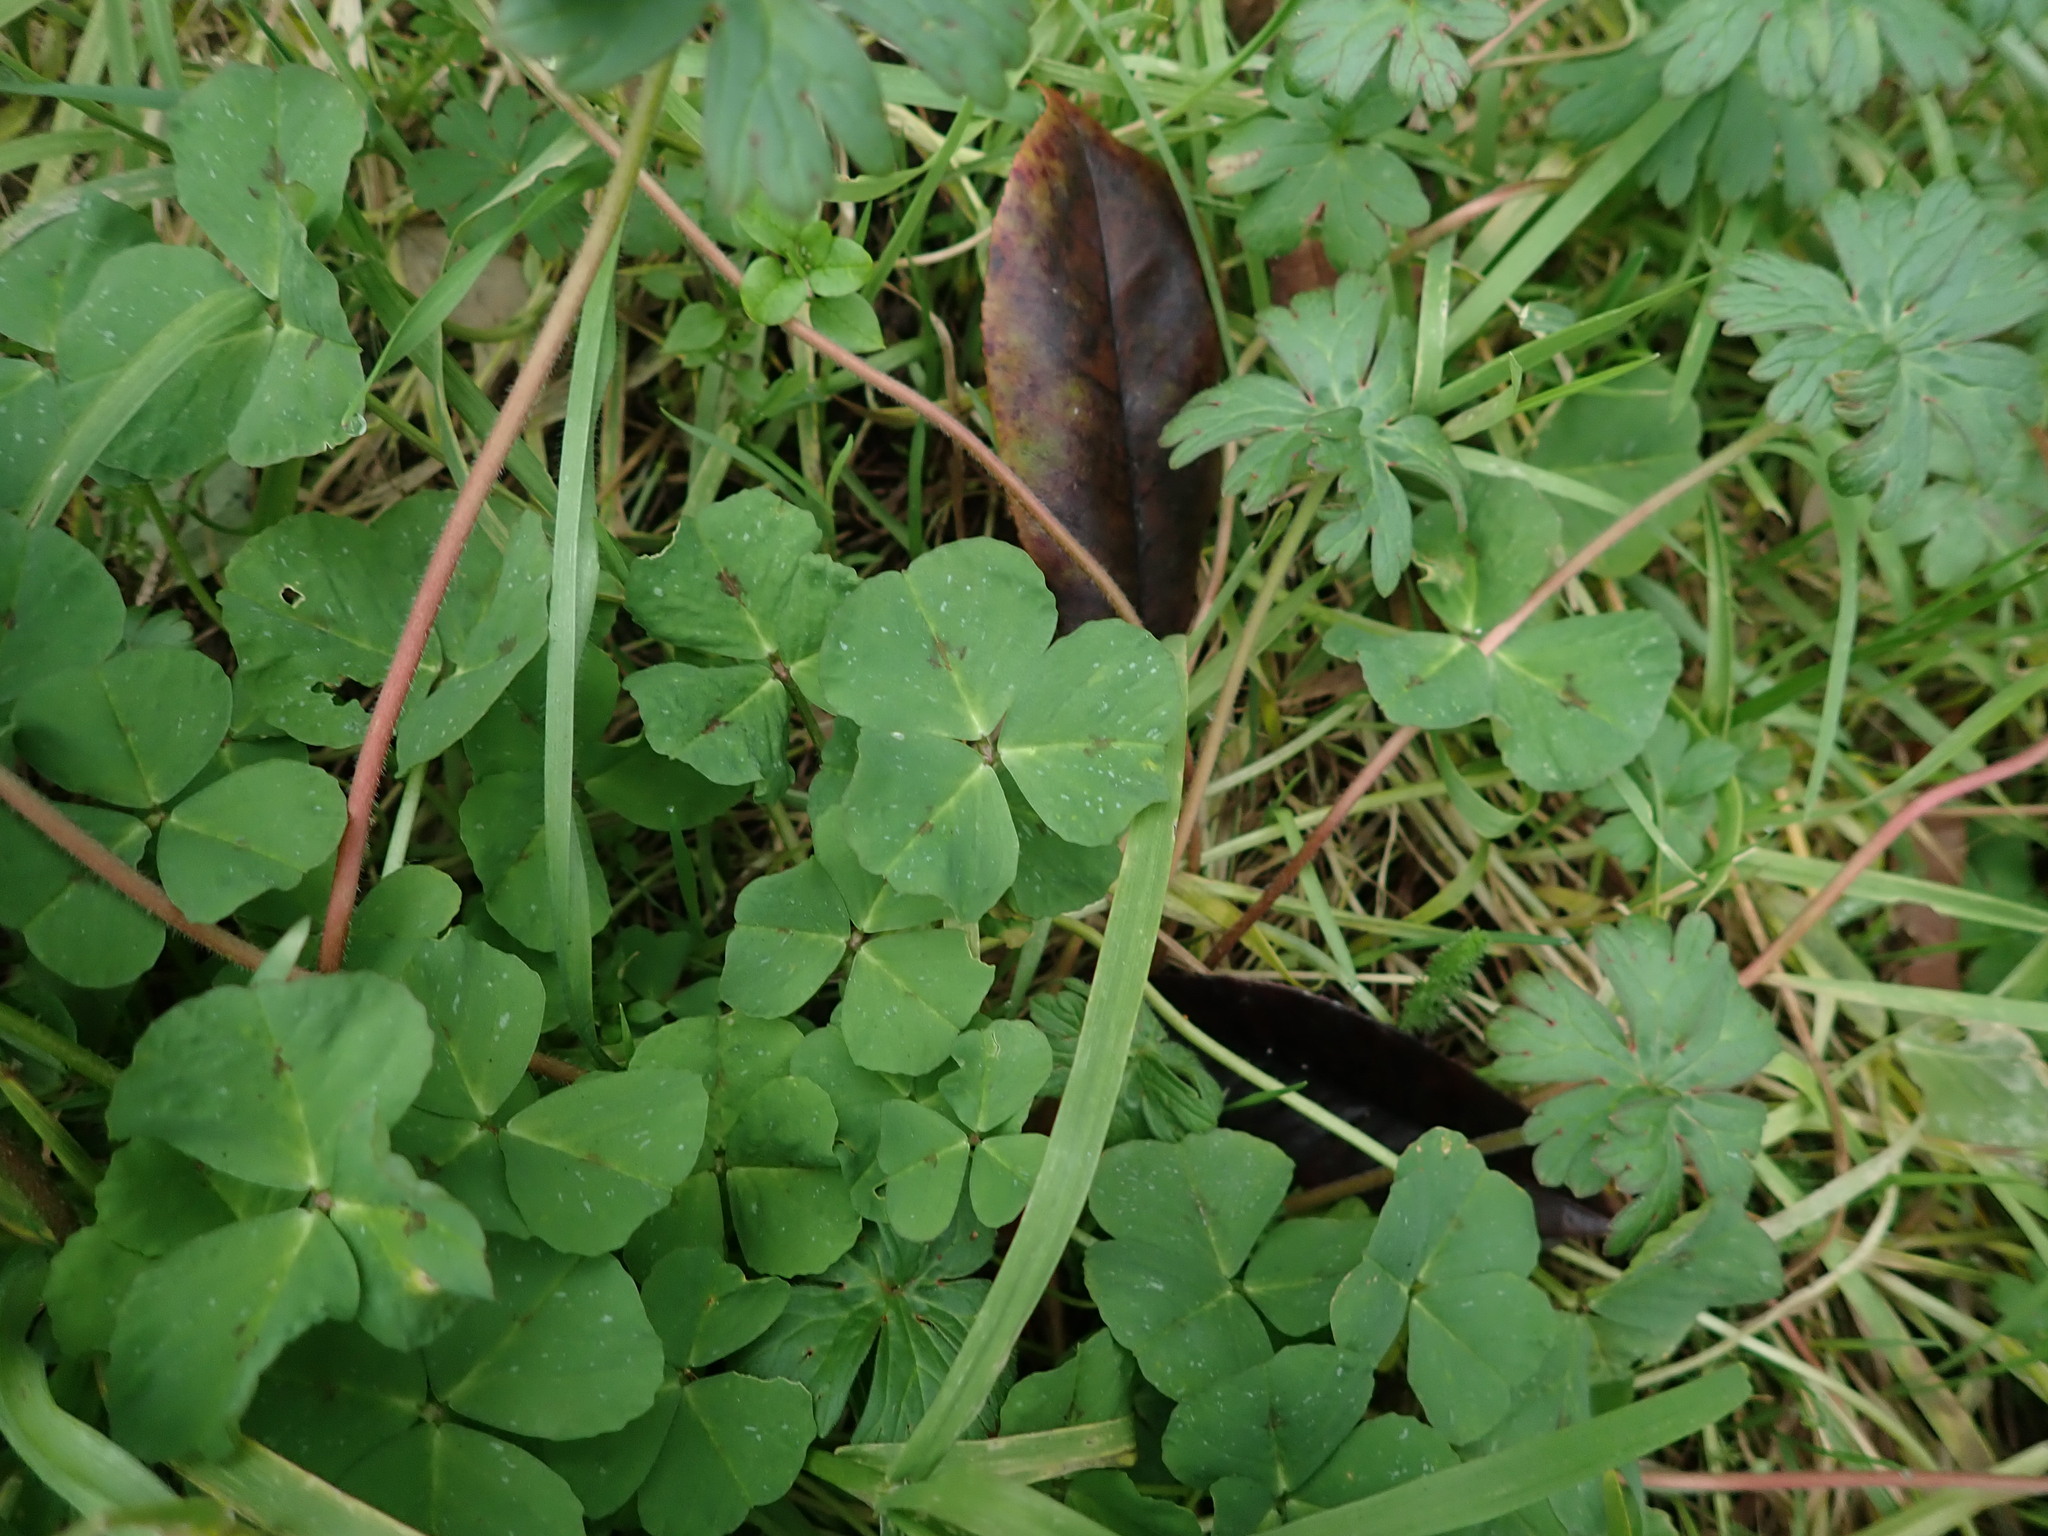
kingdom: Plantae
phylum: Tracheophyta
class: Magnoliopsida
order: Fabales
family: Fabaceae
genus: Medicago
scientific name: Medicago arabica
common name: Spotted medick
